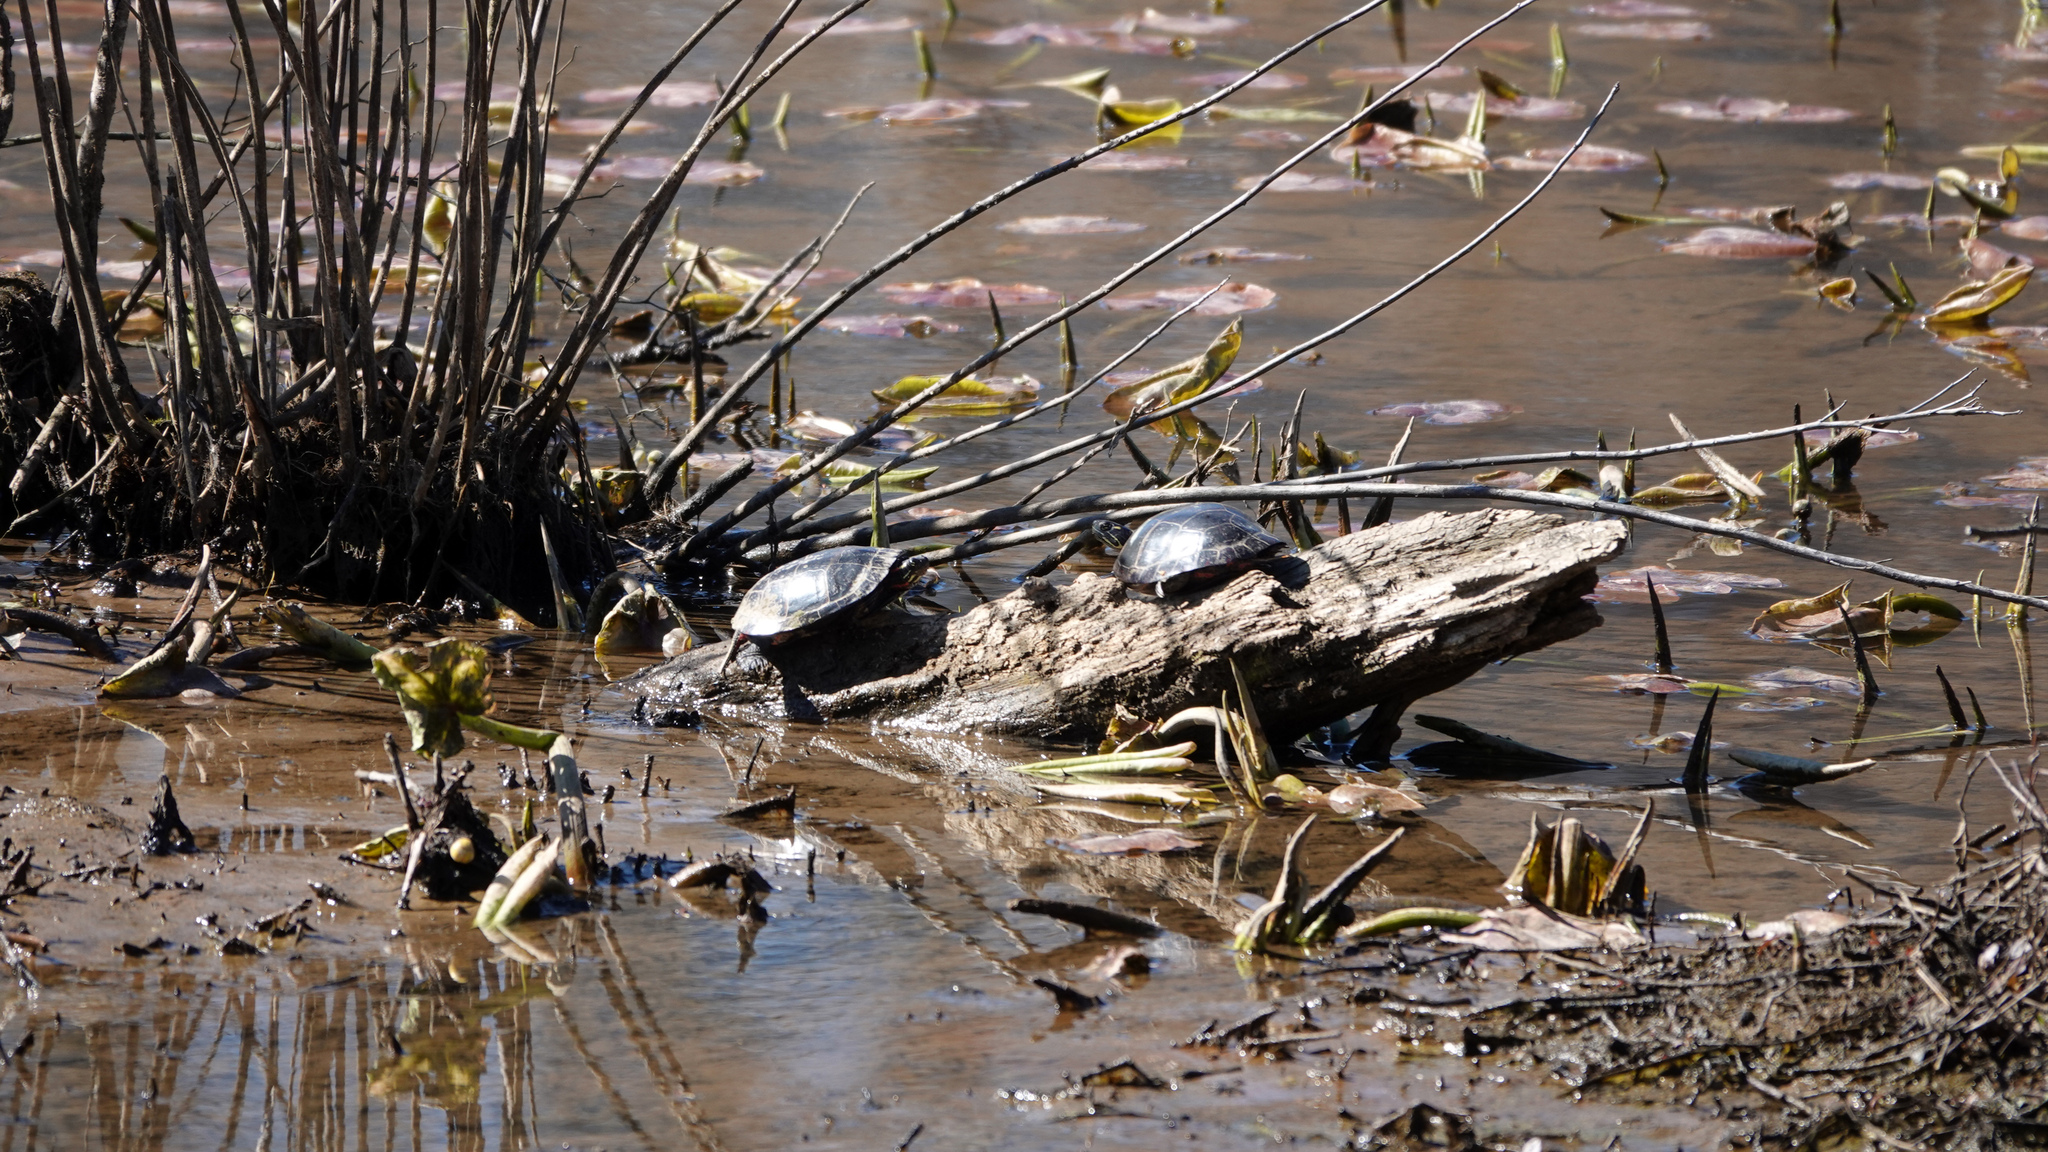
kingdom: Animalia
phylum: Chordata
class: Testudines
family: Emydidae
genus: Chrysemys
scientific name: Chrysemys picta
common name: Painted turtle
